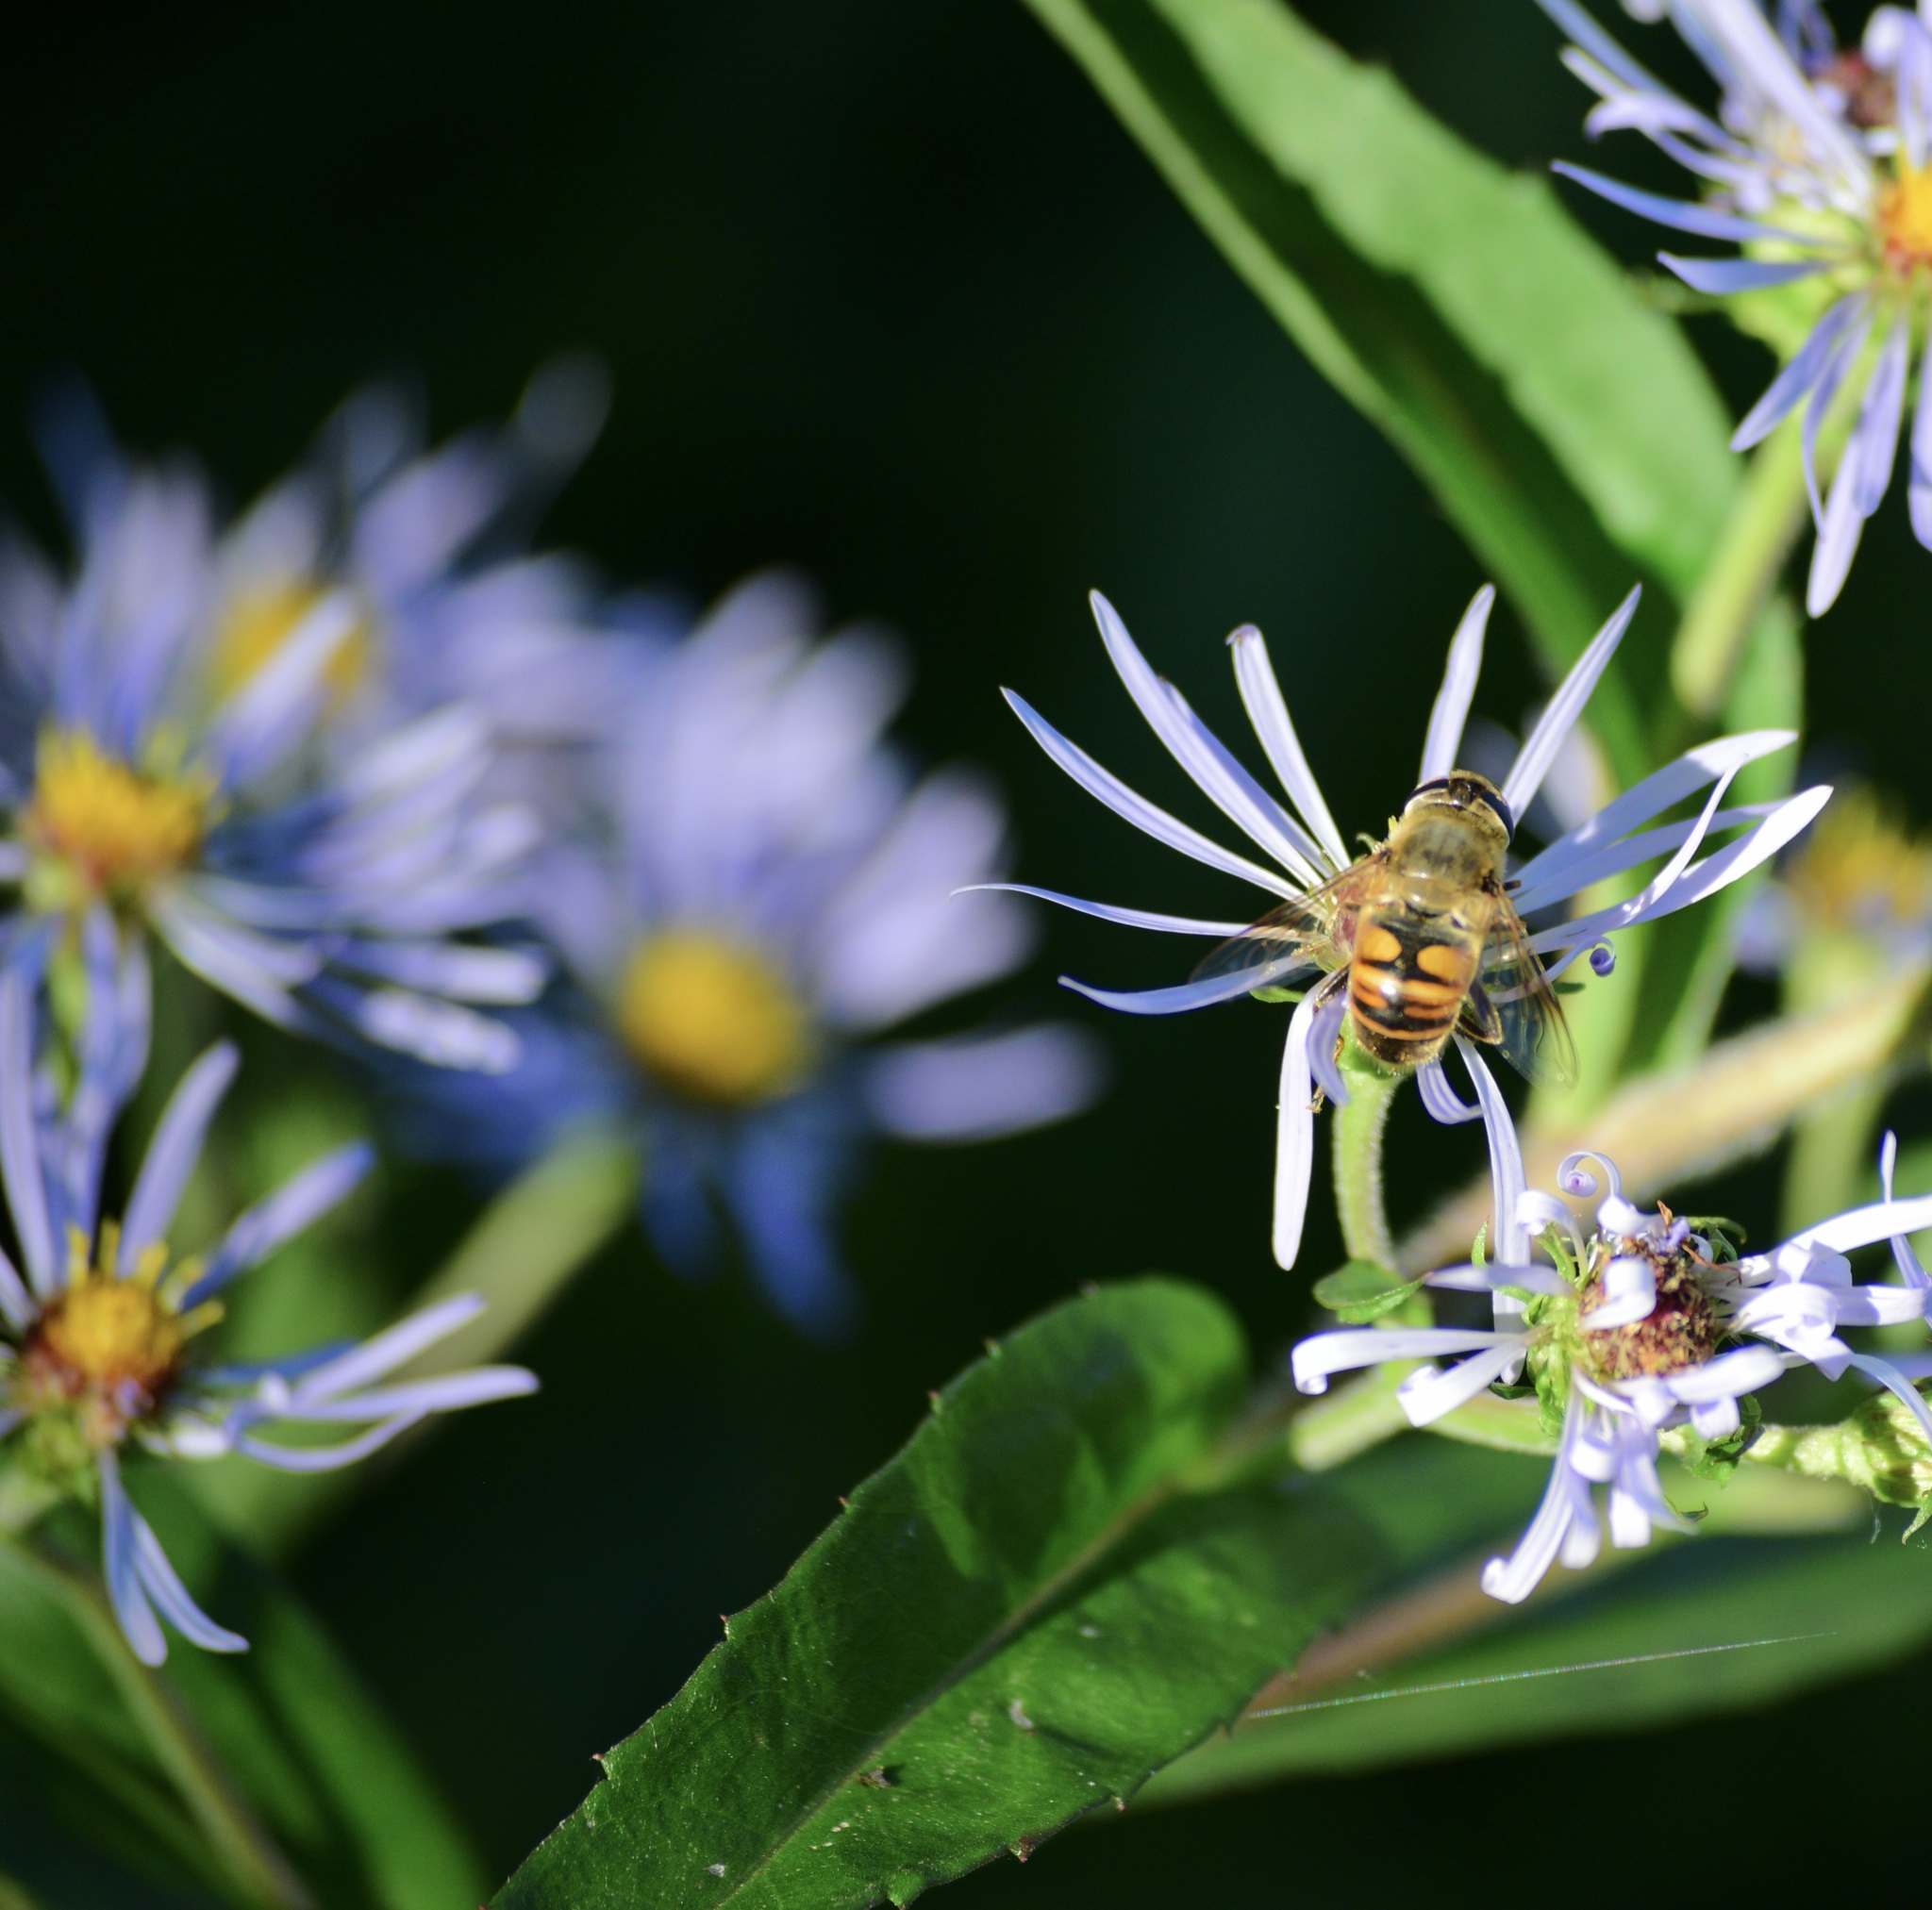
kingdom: Animalia
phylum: Arthropoda
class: Insecta
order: Diptera
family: Syrphidae
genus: Eristalis
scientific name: Eristalis tenax
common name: Drone fly
